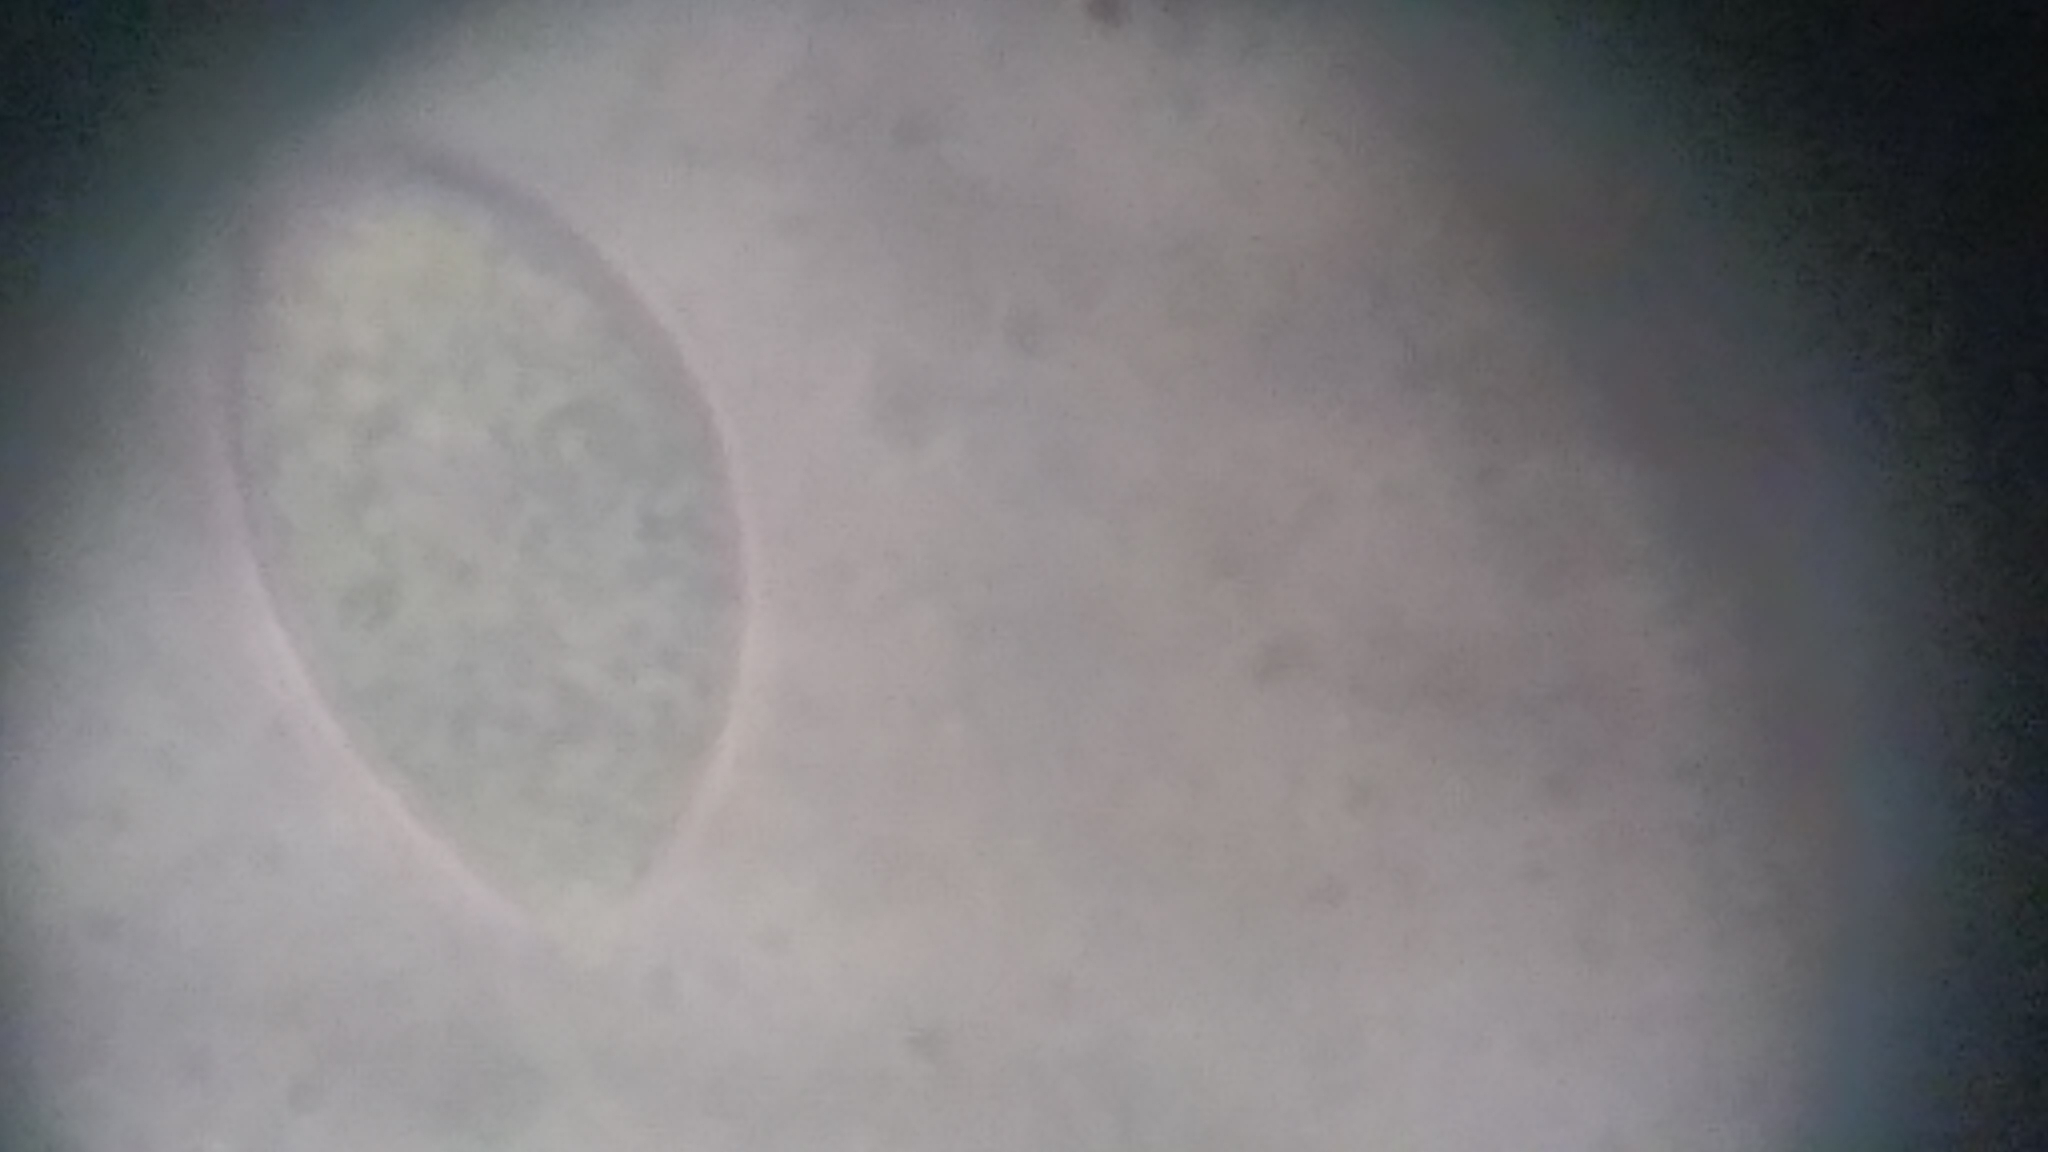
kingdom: Fungi
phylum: Basidiomycota
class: Agaricomycetes
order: Agaricales
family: Physalacriaceae
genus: Hymenopellis
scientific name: Hymenopellis rubrobrunnescens
